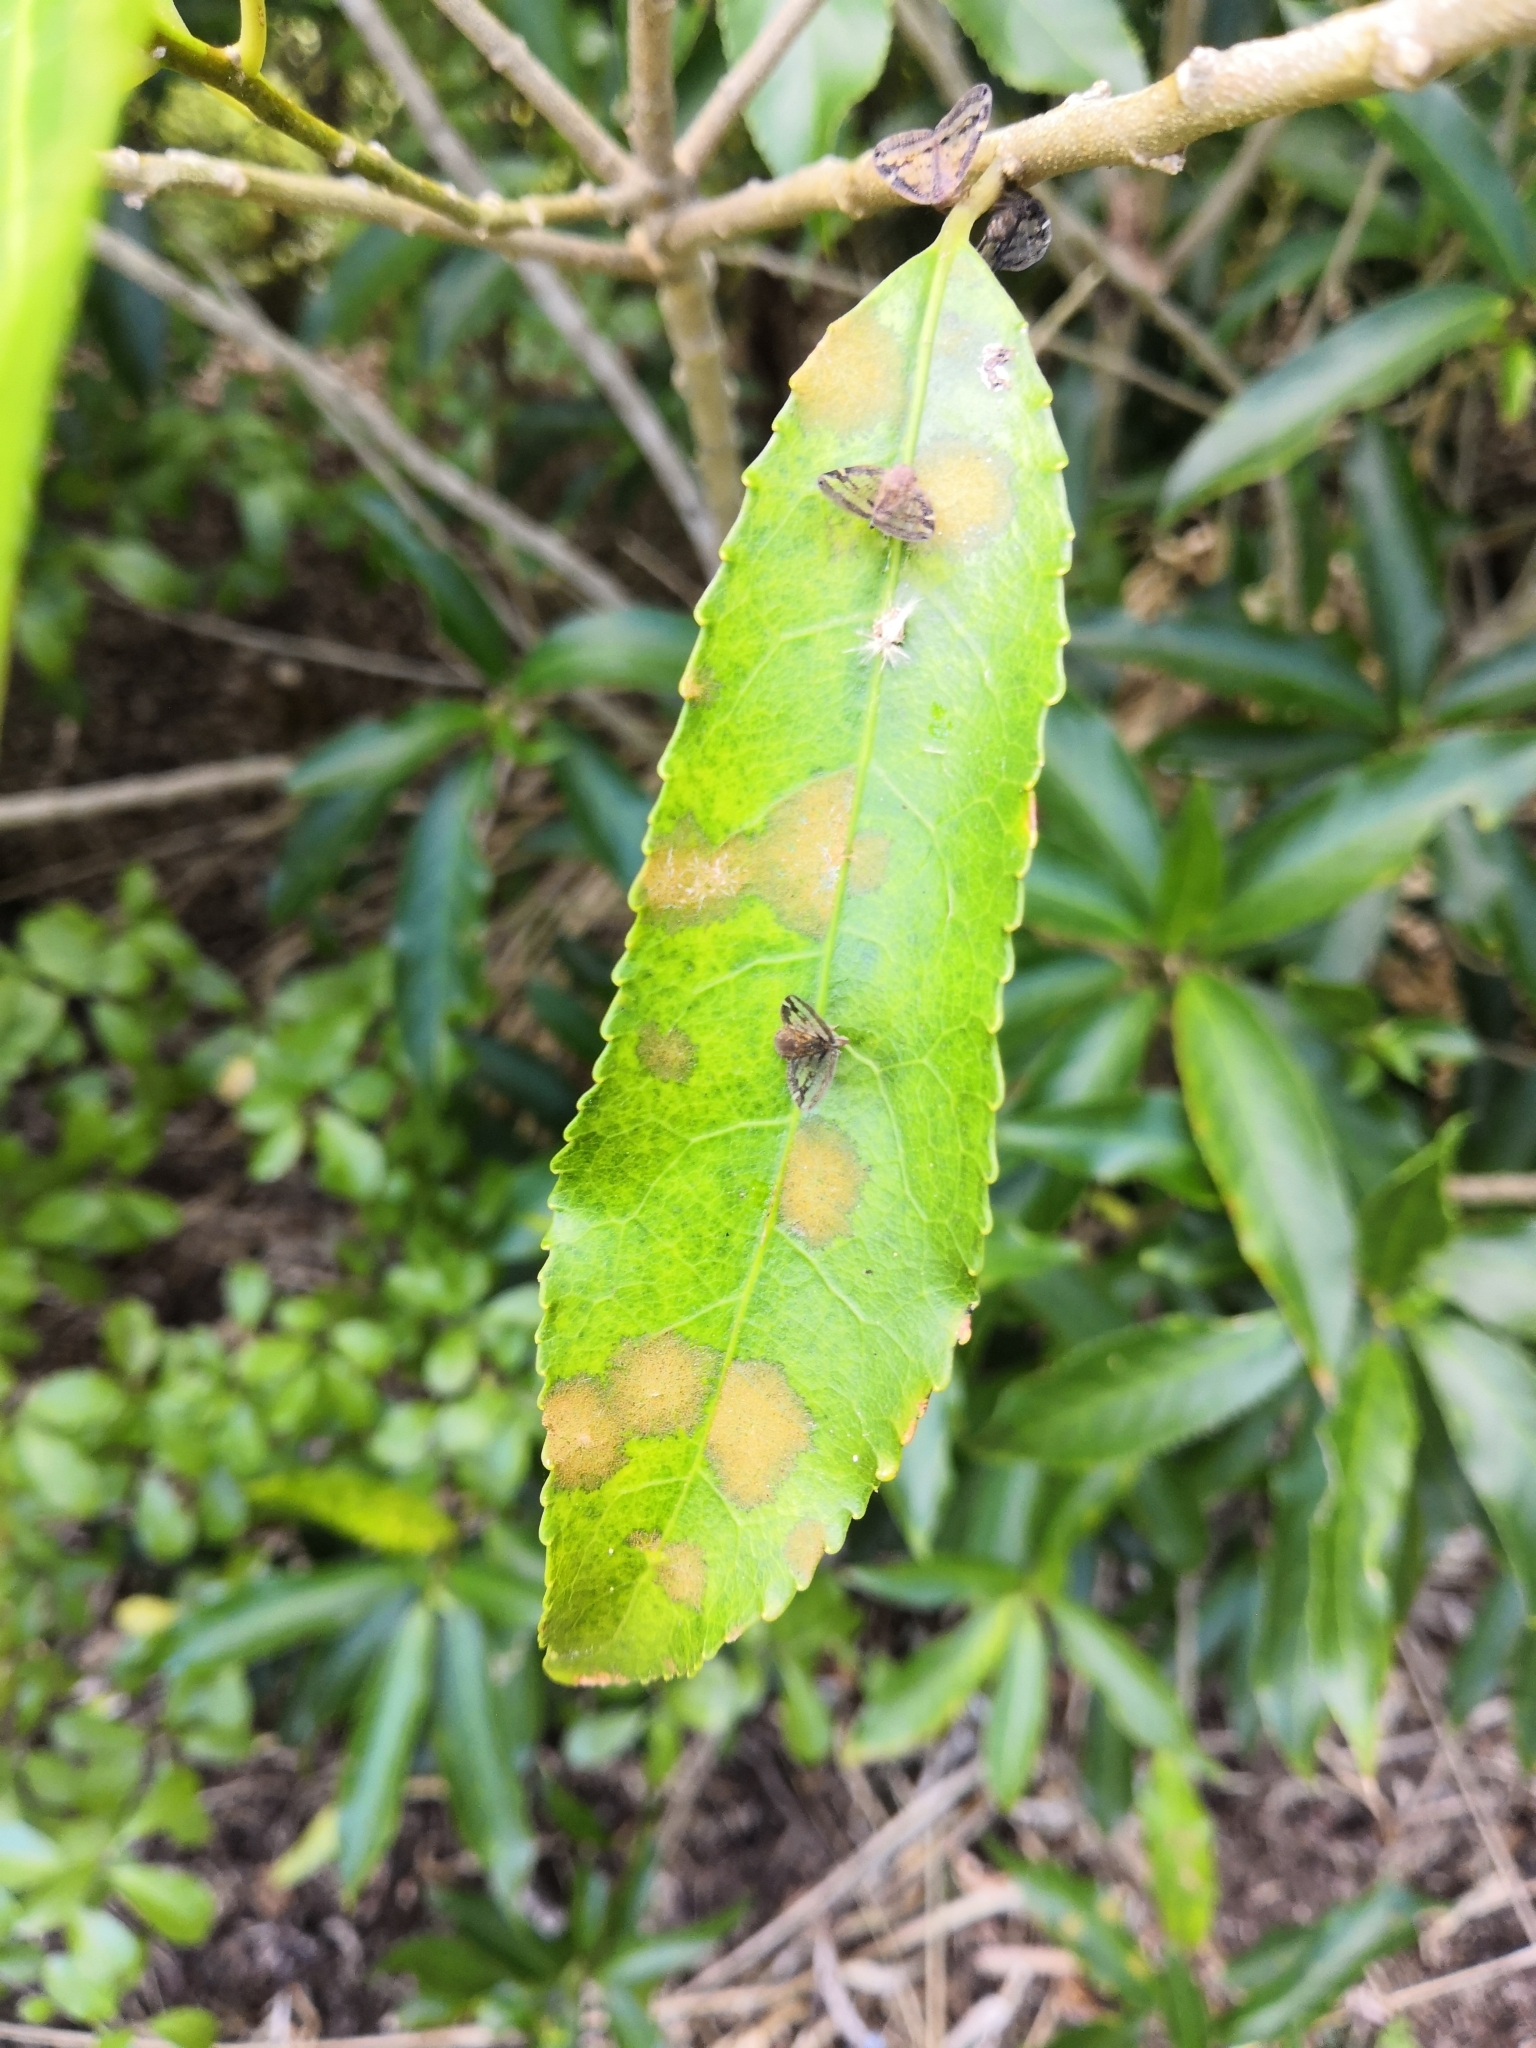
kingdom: Plantae
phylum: Tracheophyta
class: Magnoliopsida
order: Malpighiales
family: Violaceae
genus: Melicytus
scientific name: Melicytus ramiflorus
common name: Mahoe
